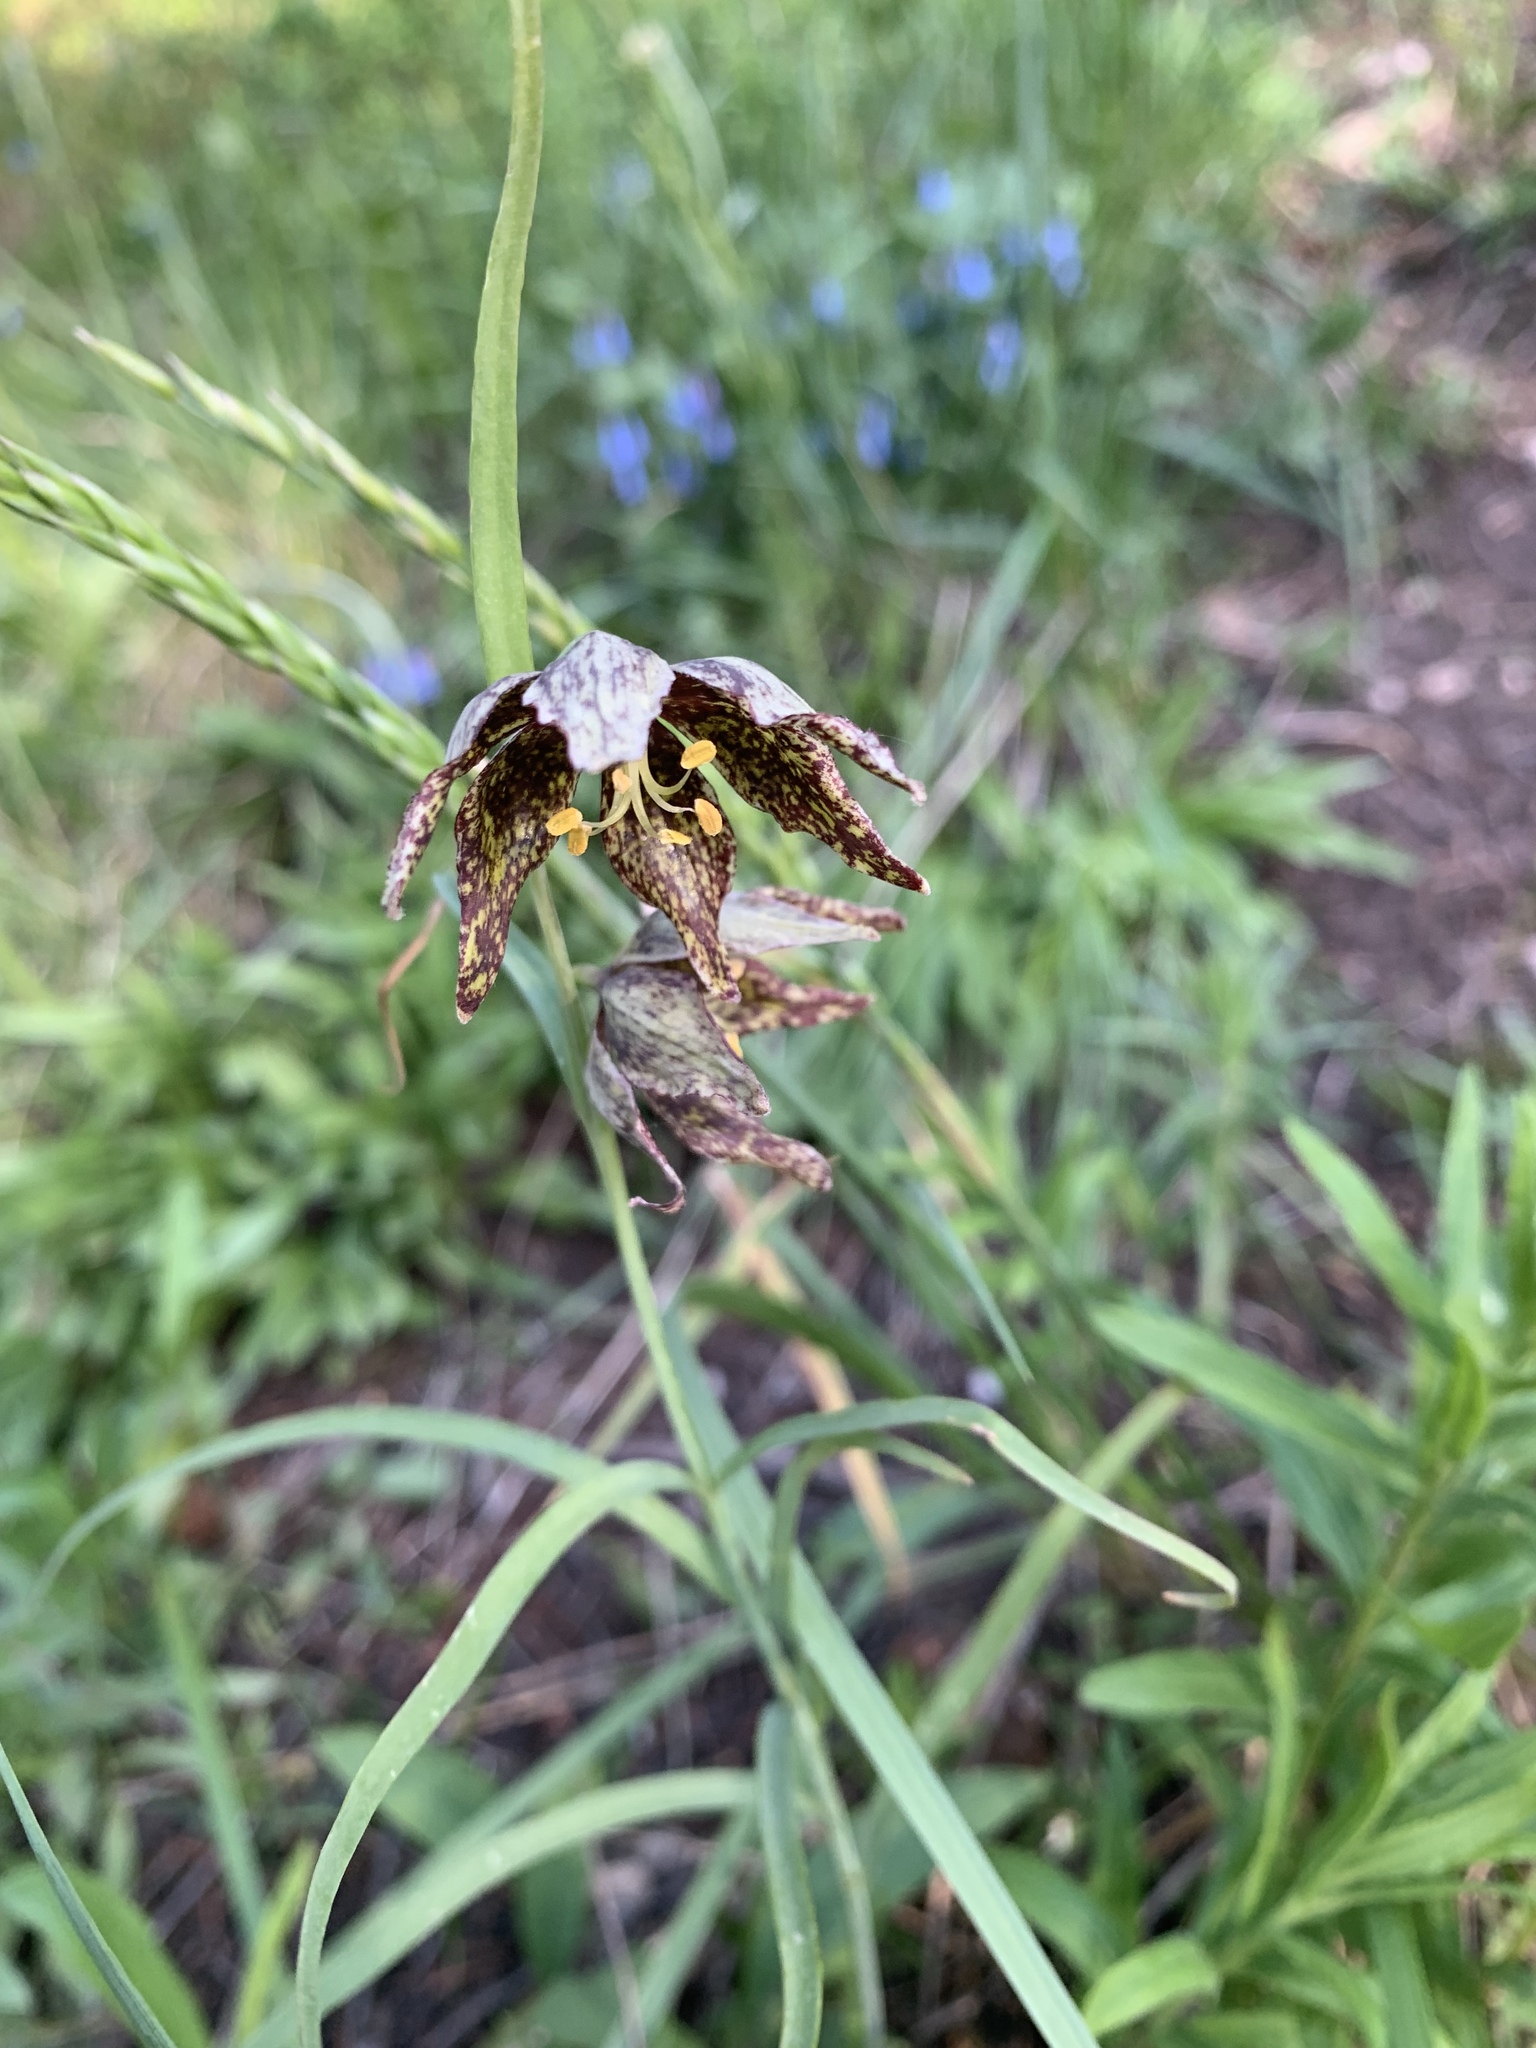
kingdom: Plantae
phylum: Tracheophyta
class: Liliopsida
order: Liliales
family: Liliaceae
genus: Fritillaria
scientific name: Fritillaria atropurpurea
